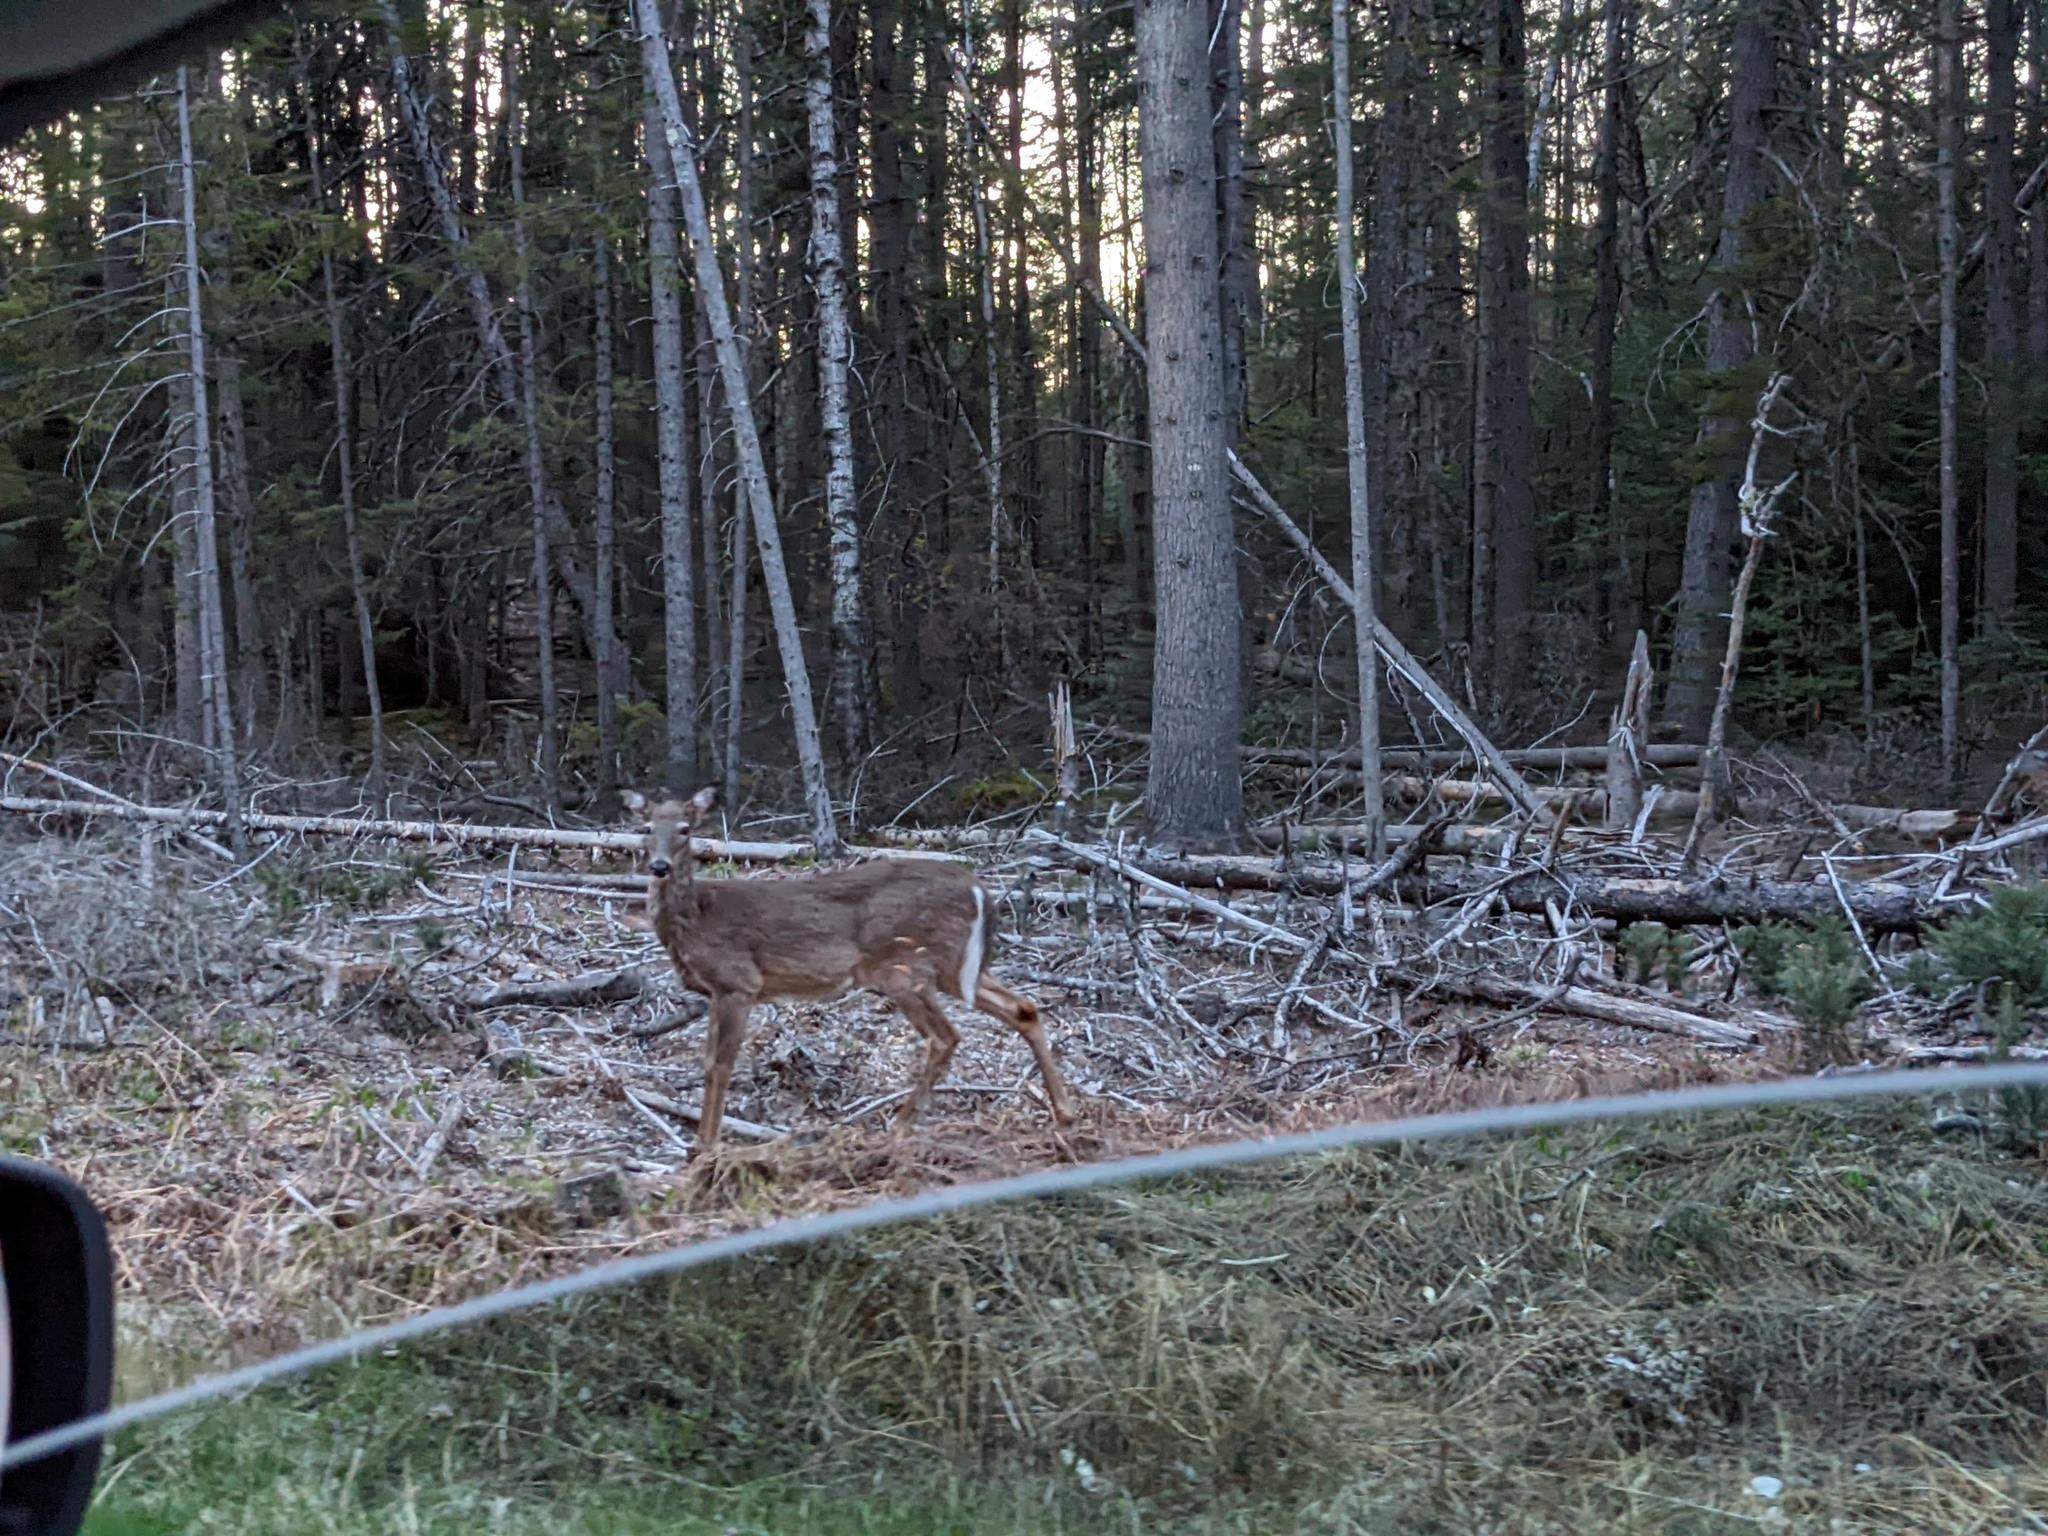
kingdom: Animalia
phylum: Chordata
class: Mammalia
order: Artiodactyla
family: Cervidae
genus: Odocoileus
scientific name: Odocoileus virginianus
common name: White-tailed deer
